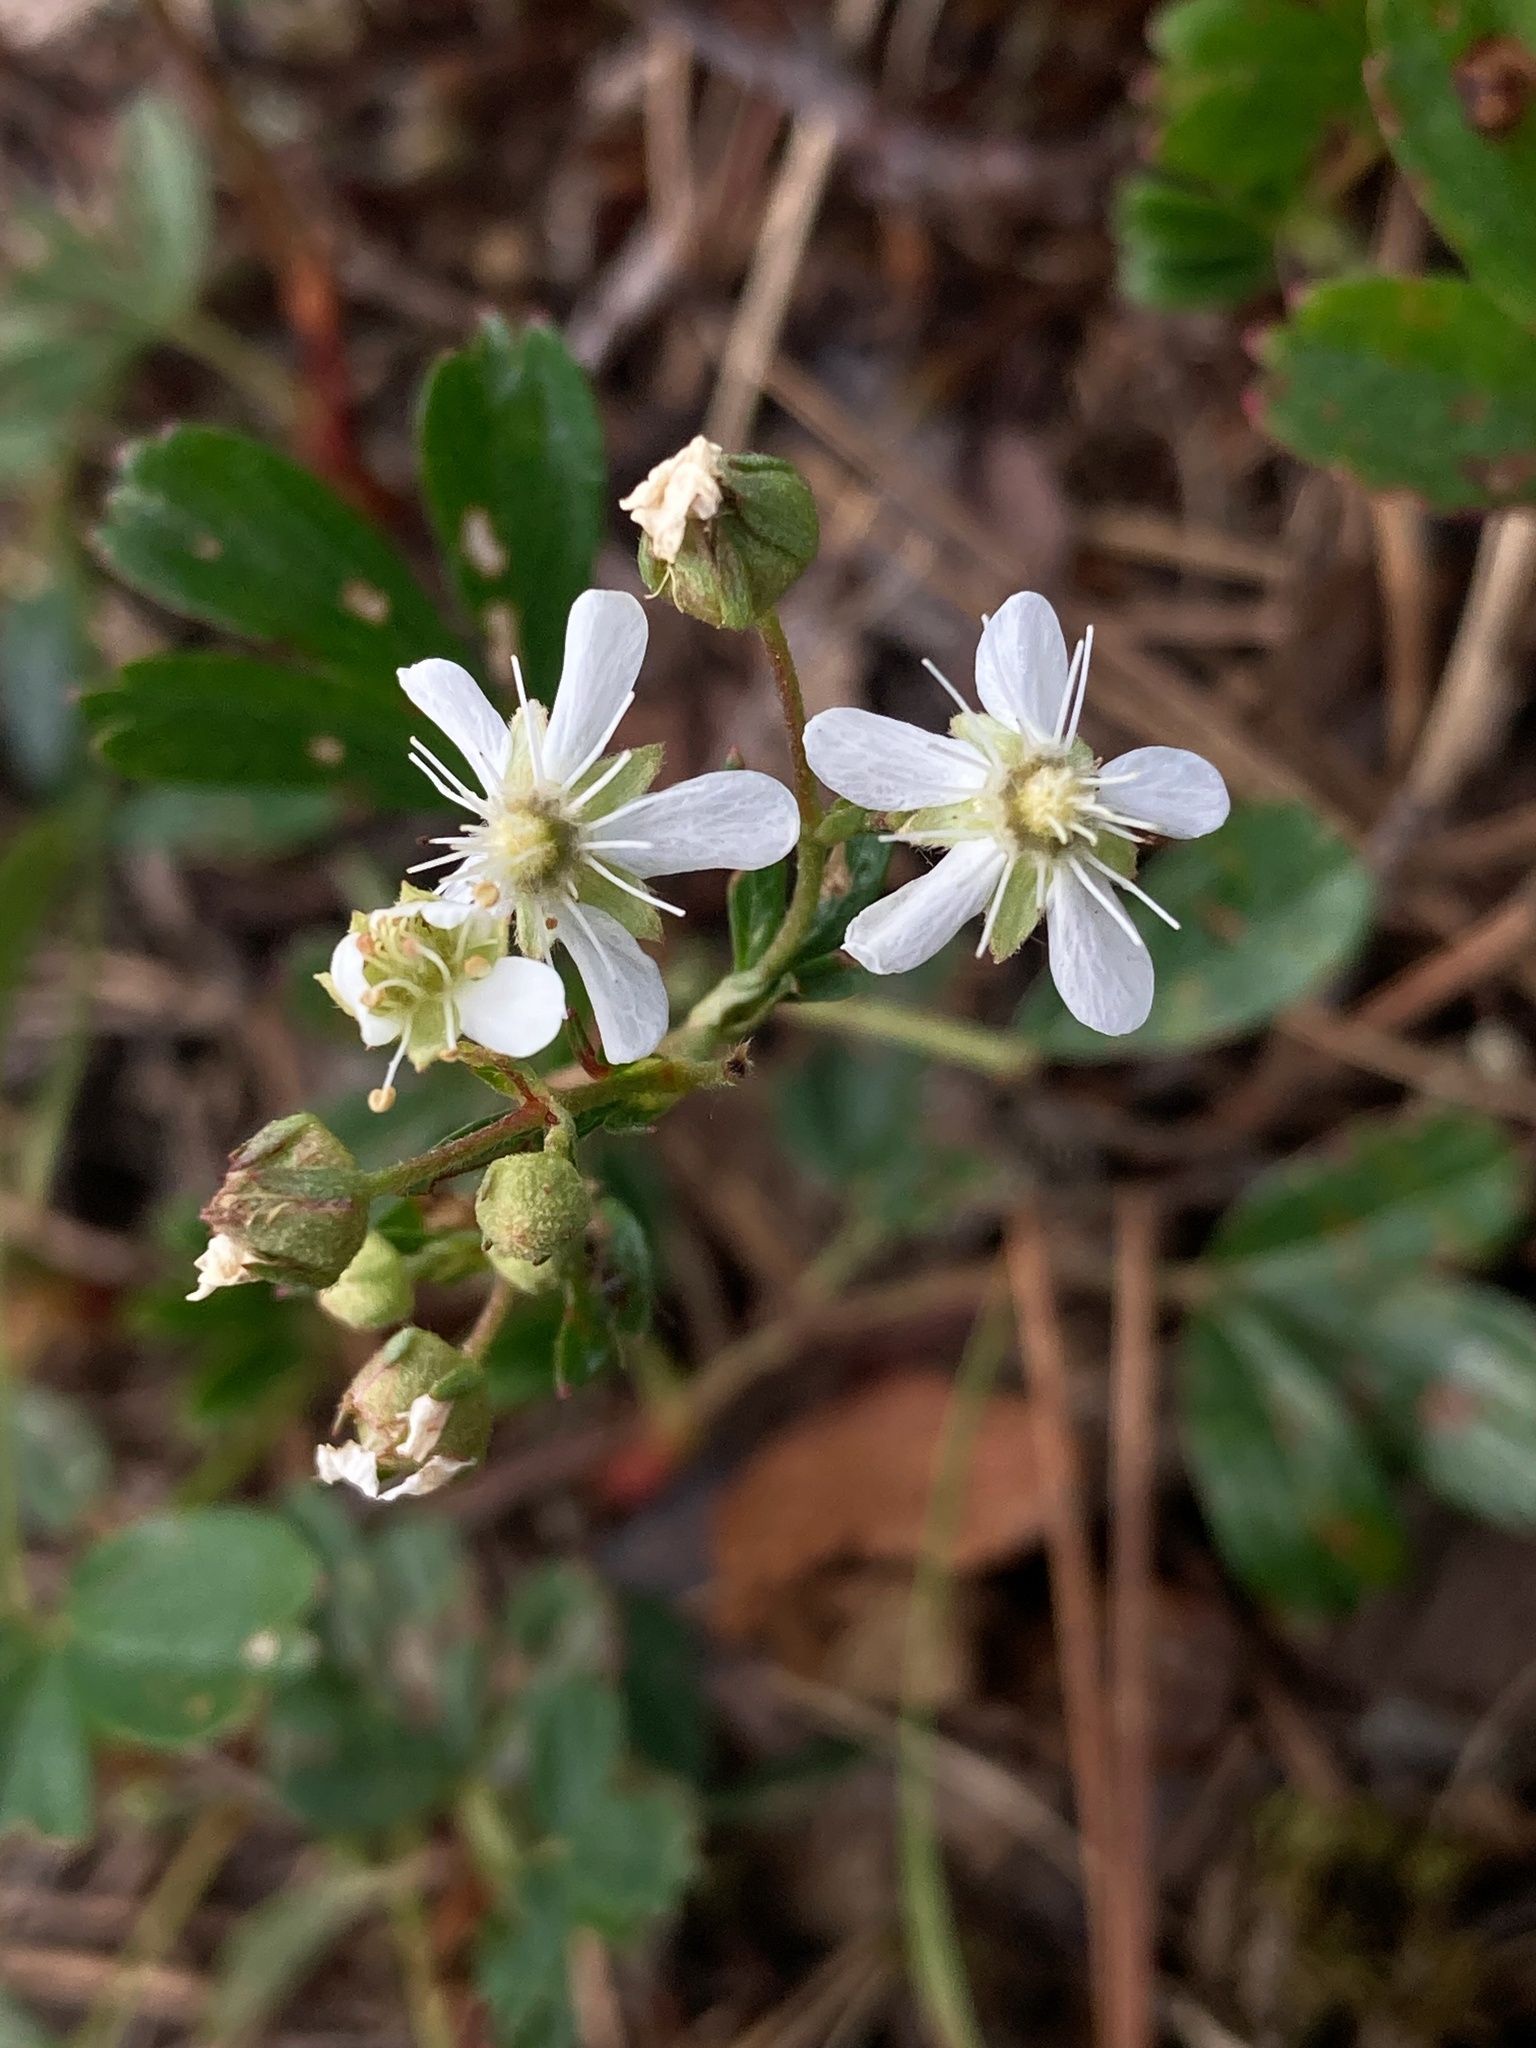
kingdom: Plantae
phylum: Tracheophyta
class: Magnoliopsida
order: Rosales
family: Rosaceae
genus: Sibbaldia
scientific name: Sibbaldia tridentata
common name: Three-toothed cinquefoil
